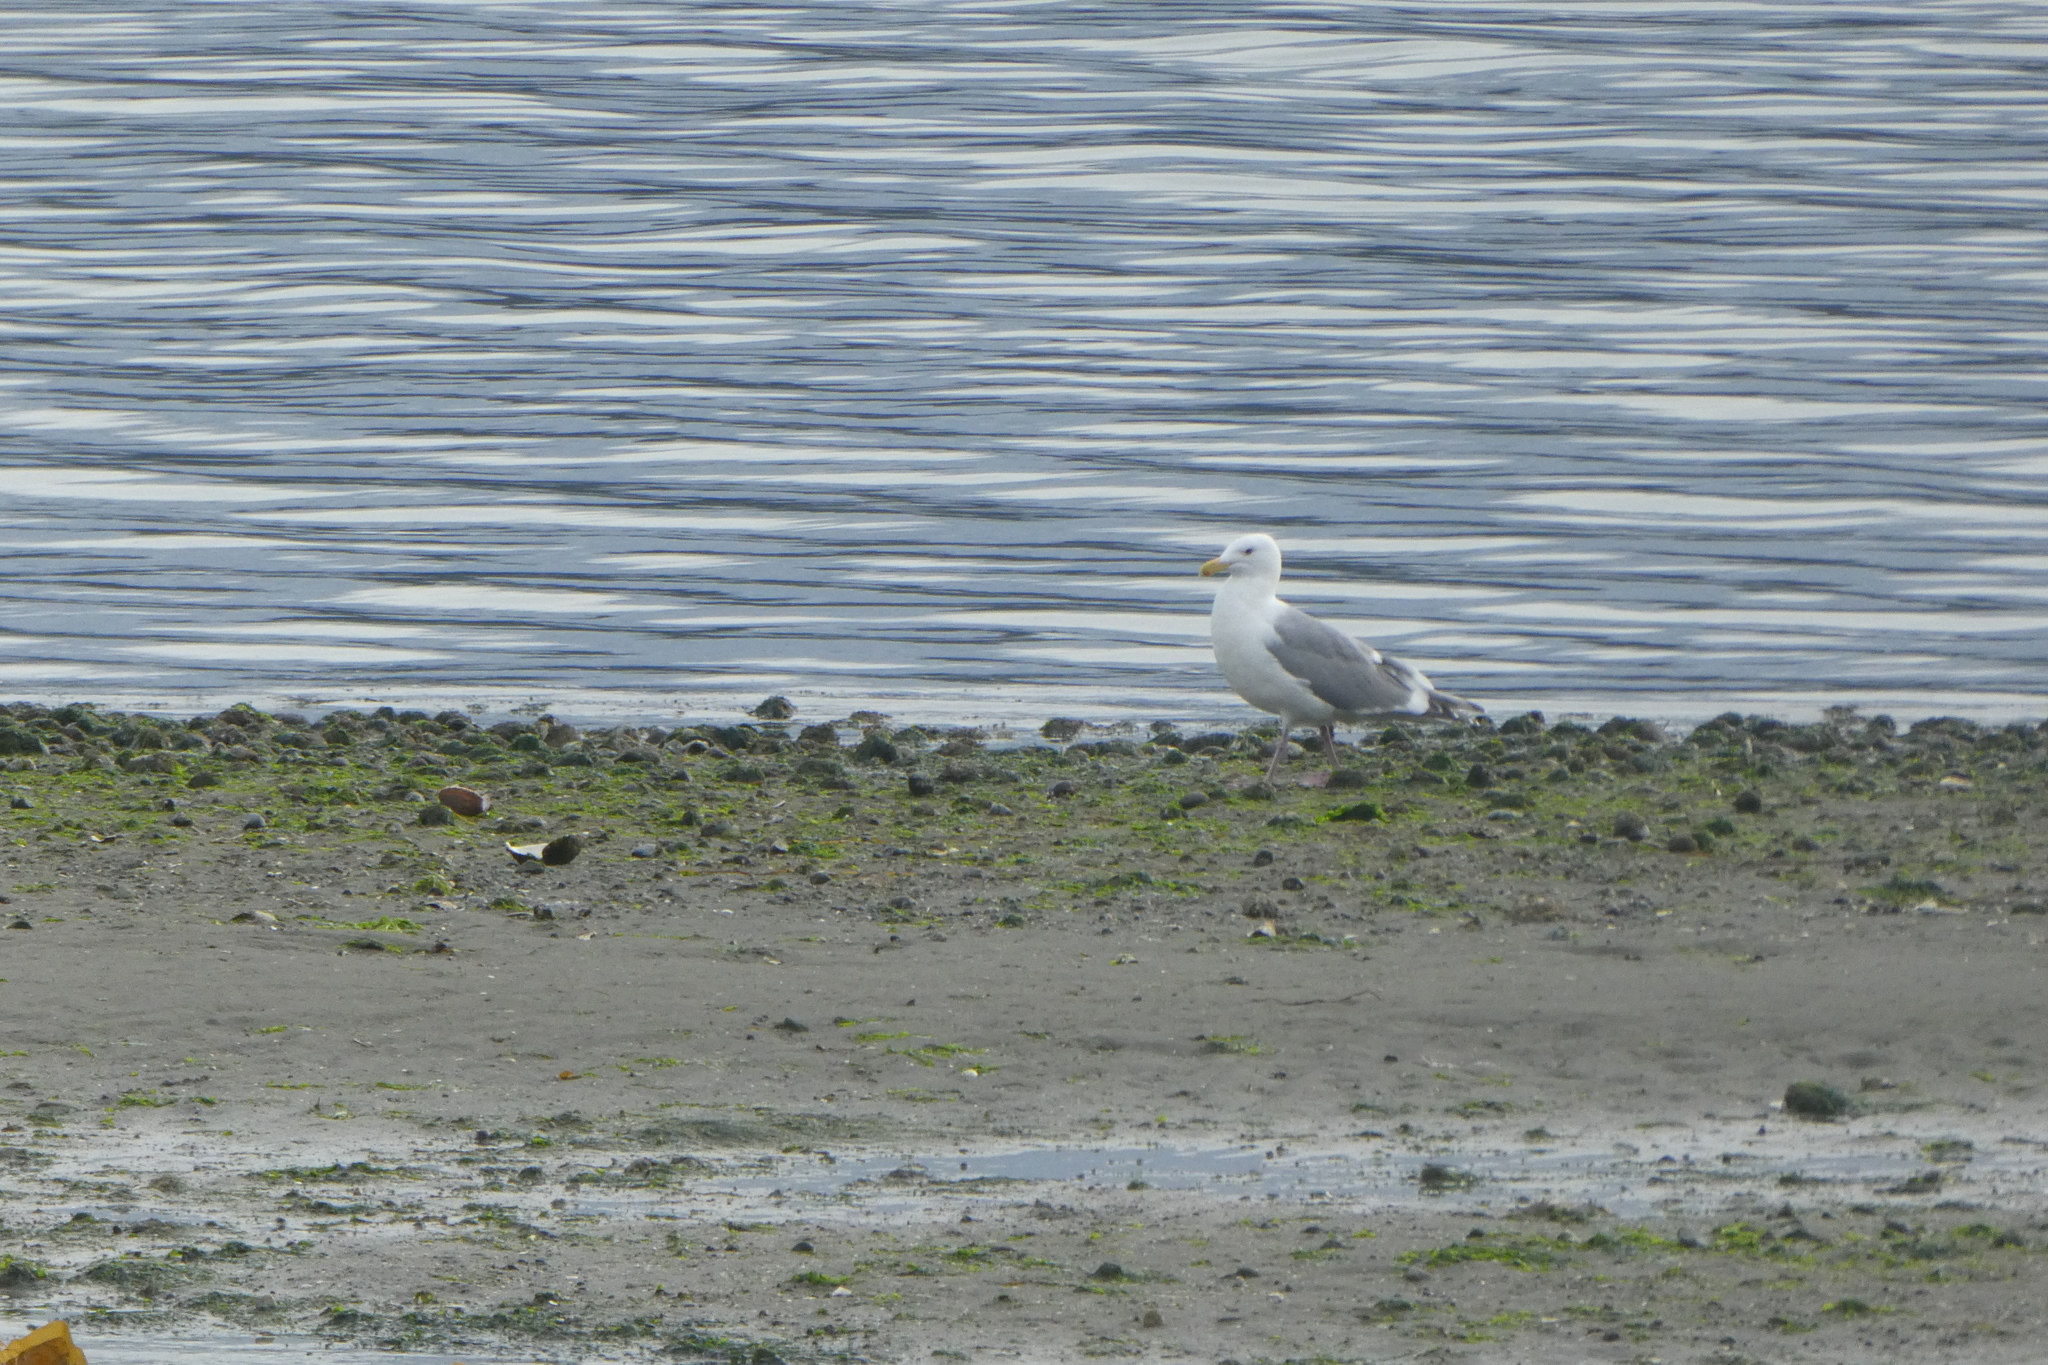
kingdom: Animalia
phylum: Chordata
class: Aves
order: Charadriiformes
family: Laridae
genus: Larus
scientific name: Larus
